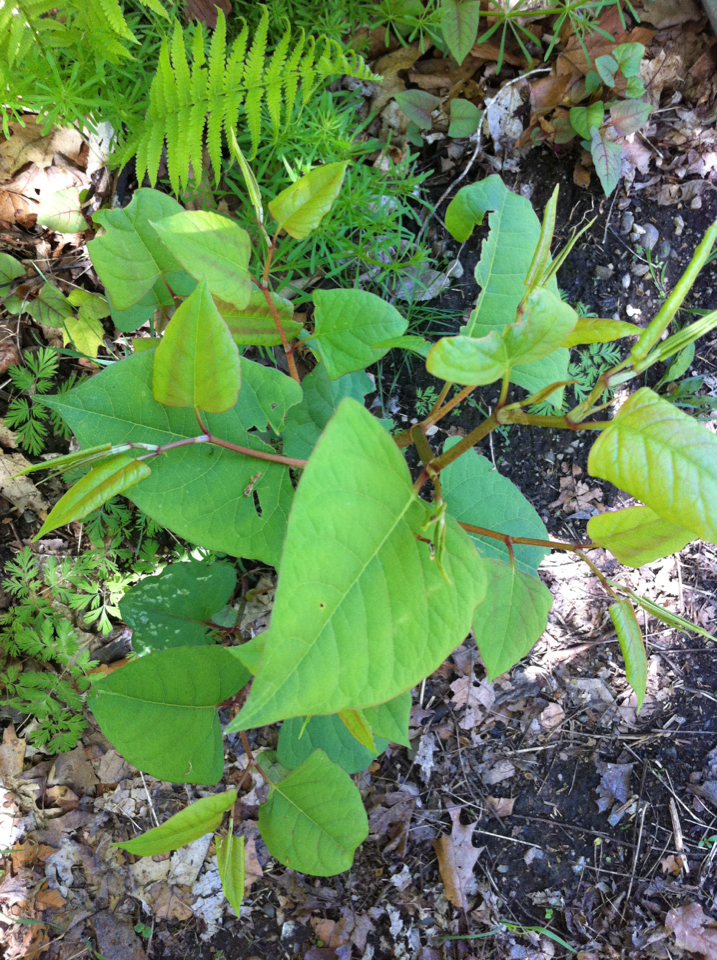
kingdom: Plantae
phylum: Tracheophyta
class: Magnoliopsida
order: Caryophyllales
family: Polygonaceae
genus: Reynoutria
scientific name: Reynoutria japonica
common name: Japanese knotweed
